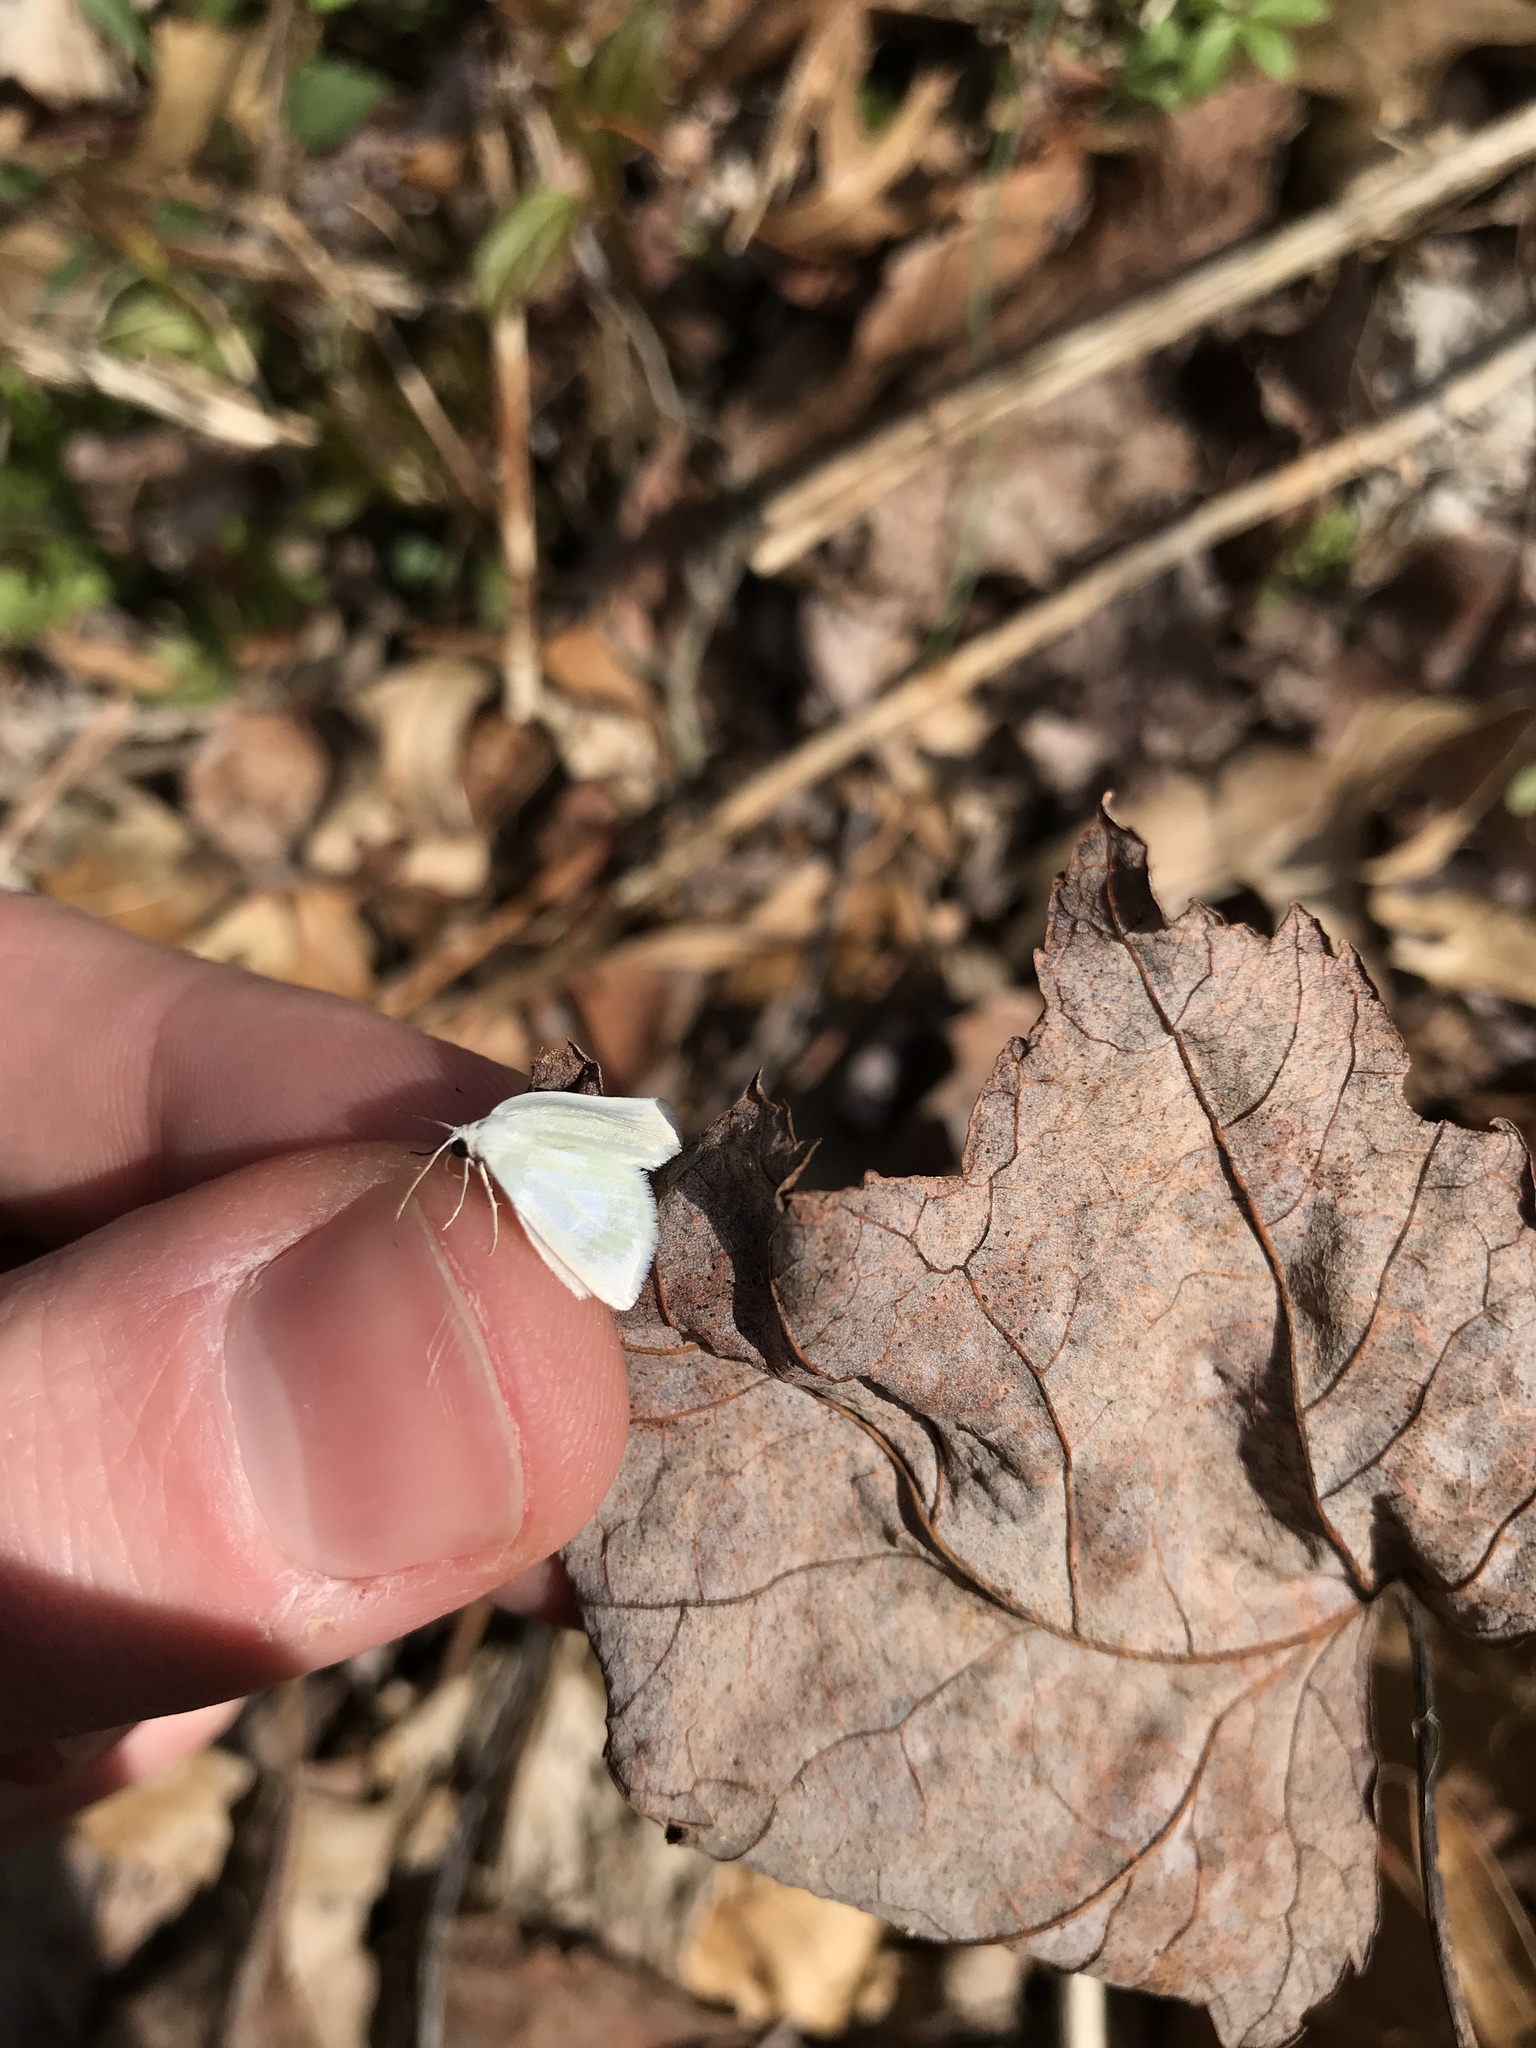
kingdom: Animalia
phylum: Arthropoda
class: Insecta
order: Lepidoptera
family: Geometridae
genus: Lomographa
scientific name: Lomographa vestaliata
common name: White spring moth
